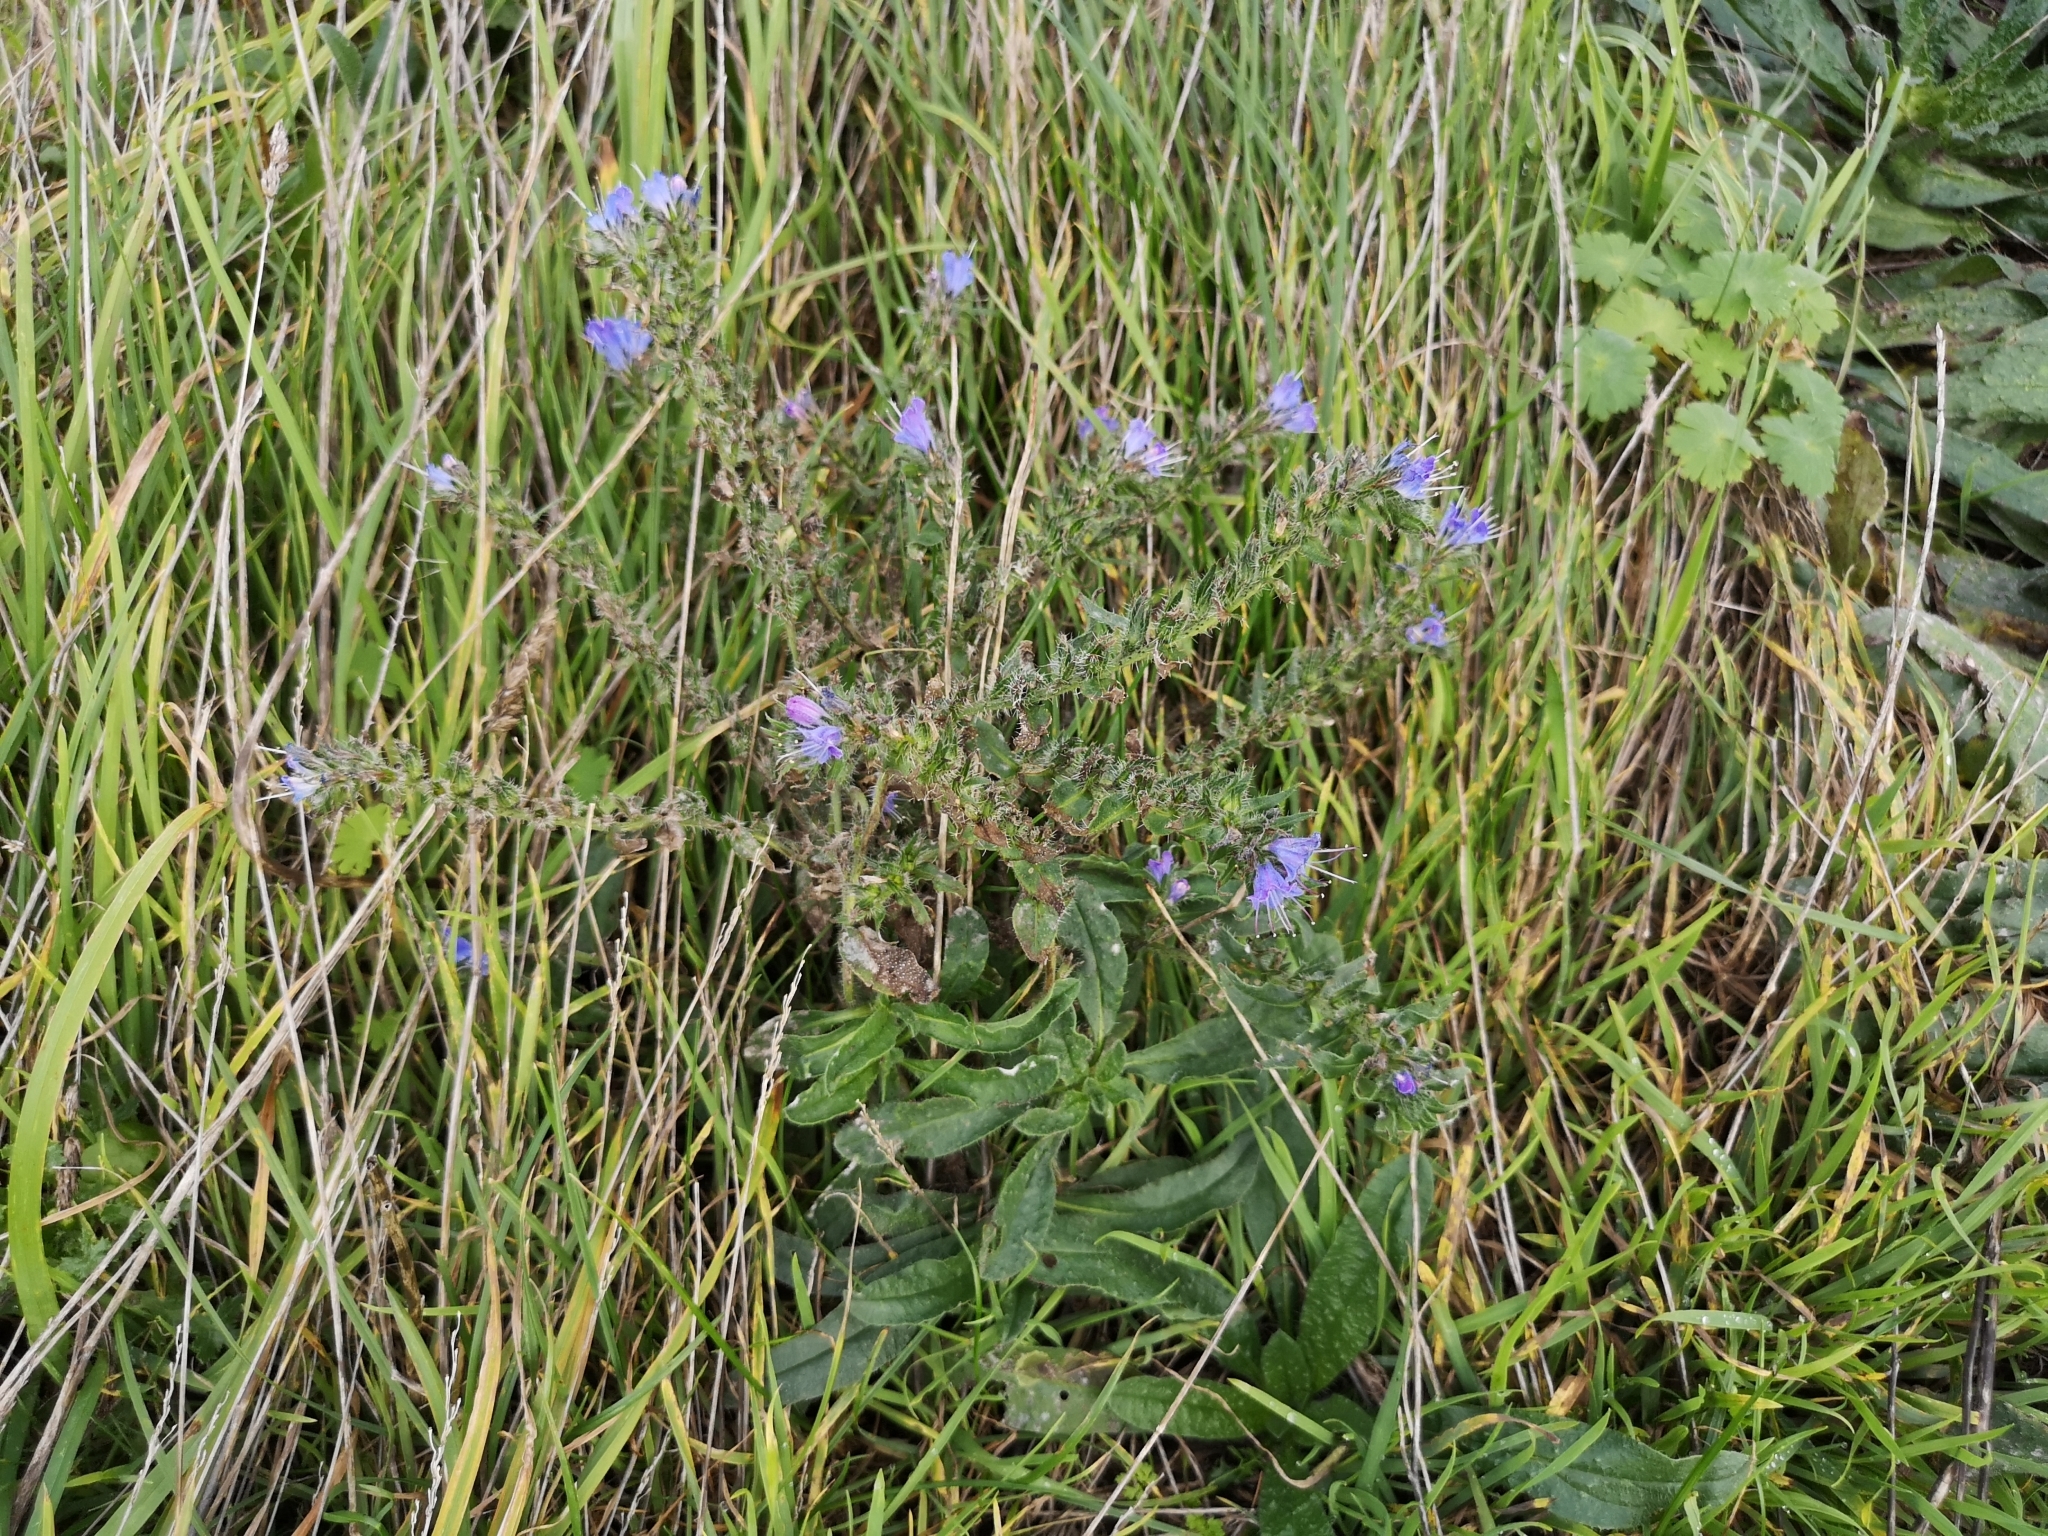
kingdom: Plantae
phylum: Tracheophyta
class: Magnoliopsida
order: Boraginales
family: Boraginaceae
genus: Echium
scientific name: Echium vulgare
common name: Common viper's bugloss
